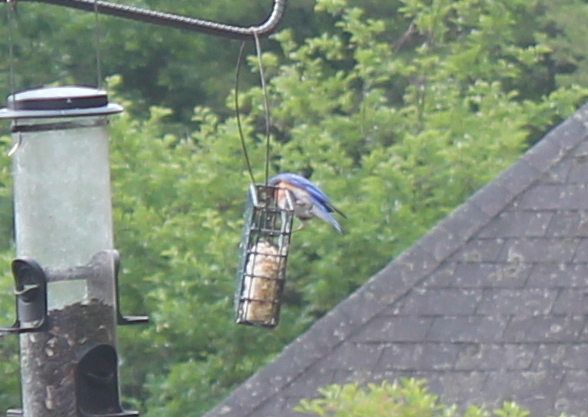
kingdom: Animalia
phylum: Chordata
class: Aves
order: Passeriformes
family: Turdidae
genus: Sialia
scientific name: Sialia sialis
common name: Eastern bluebird
